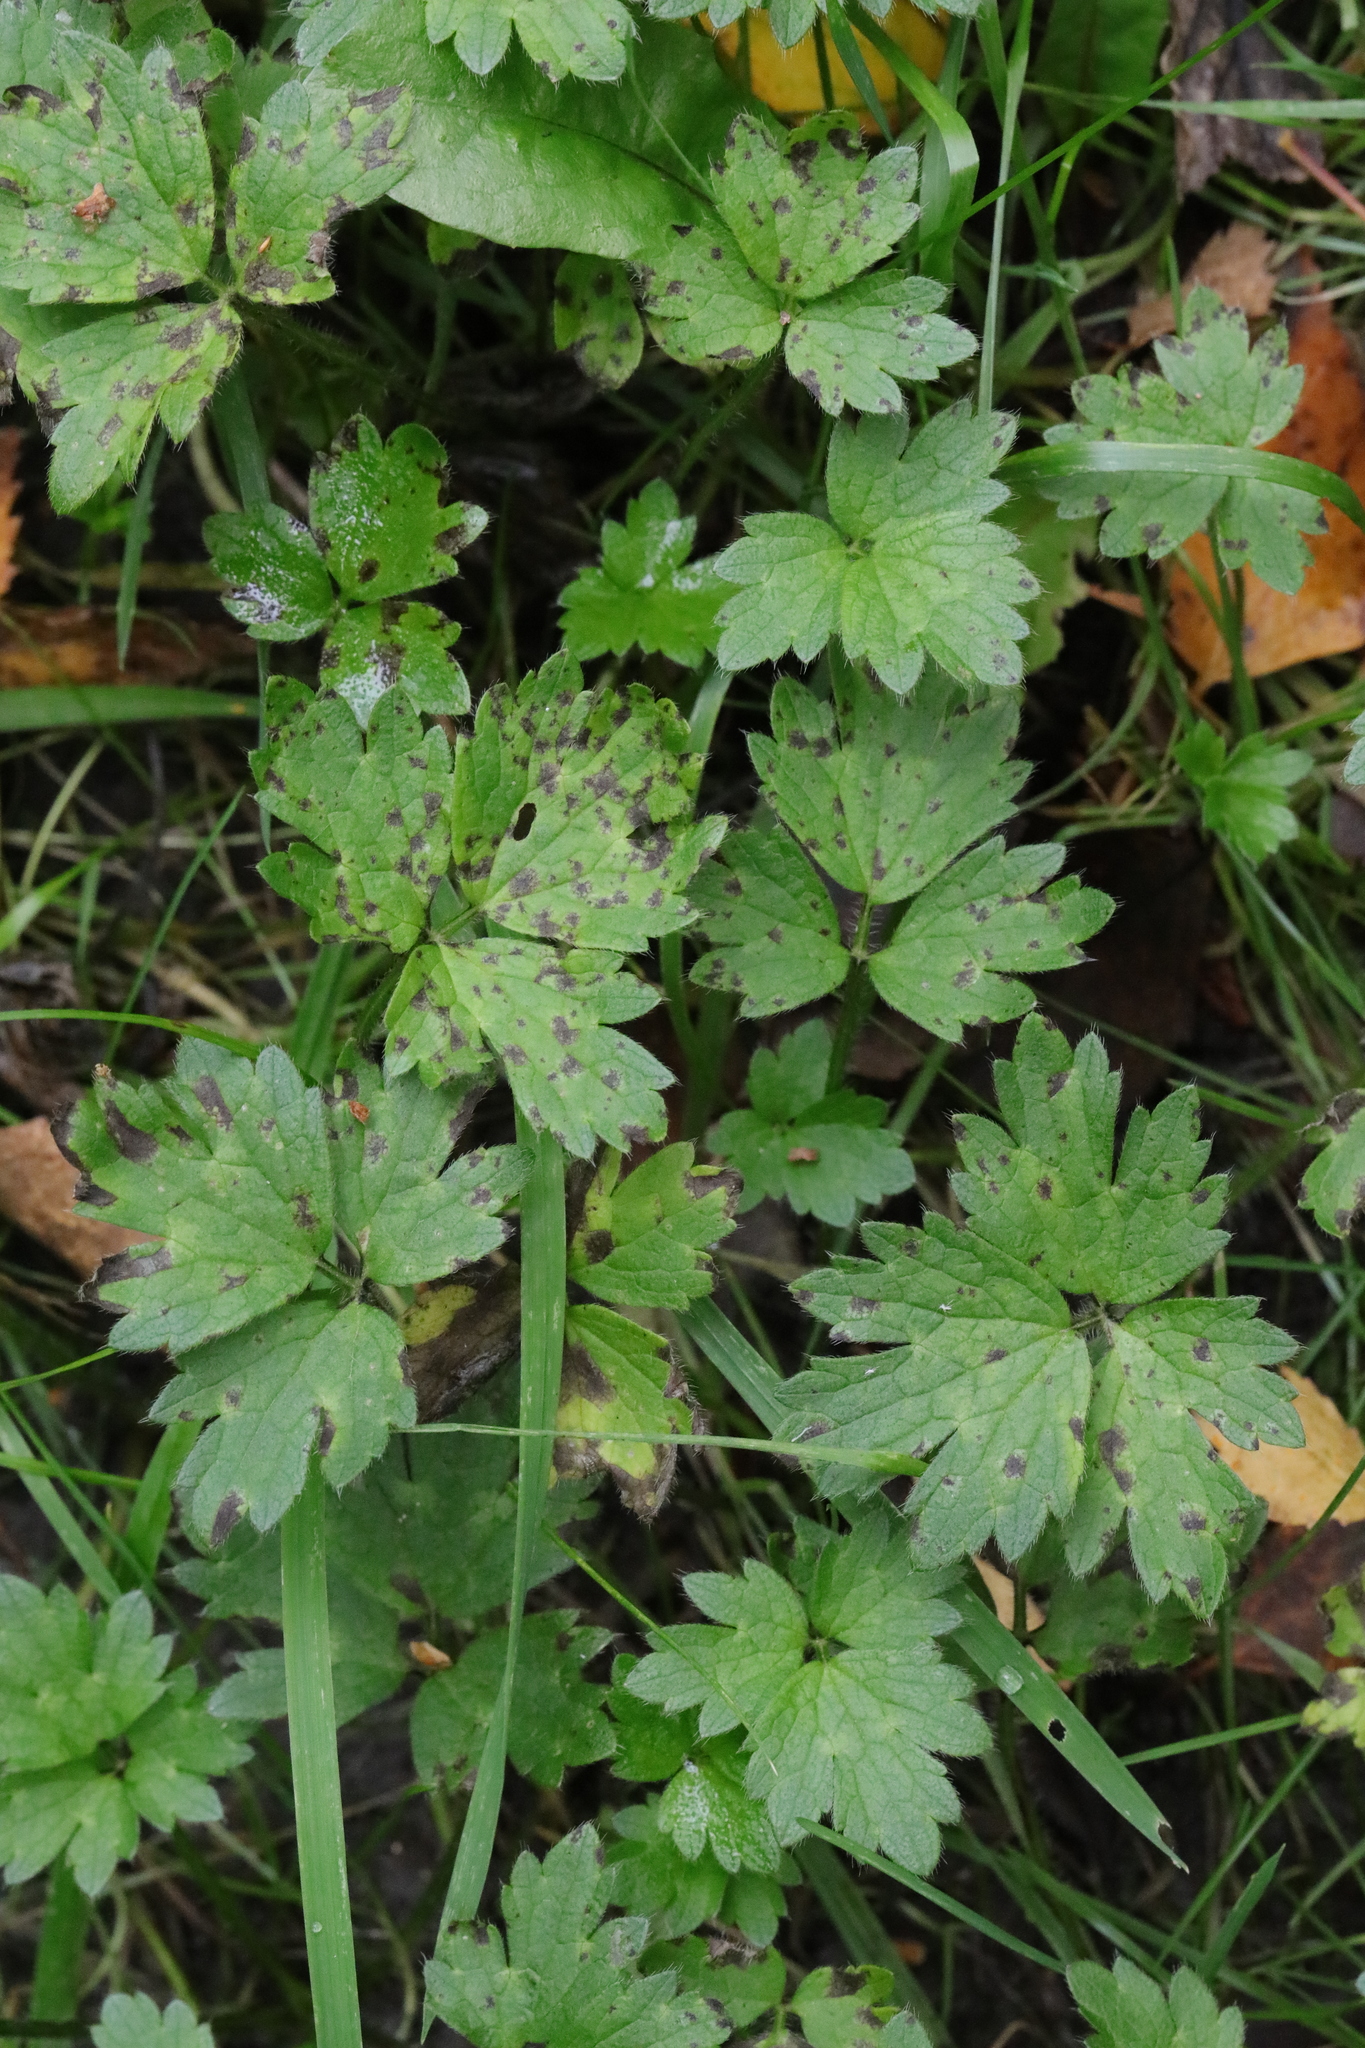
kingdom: Plantae
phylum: Tracheophyta
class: Magnoliopsida
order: Ranunculales
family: Ranunculaceae
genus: Ranunculus
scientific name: Ranunculus repens
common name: Creeping buttercup
